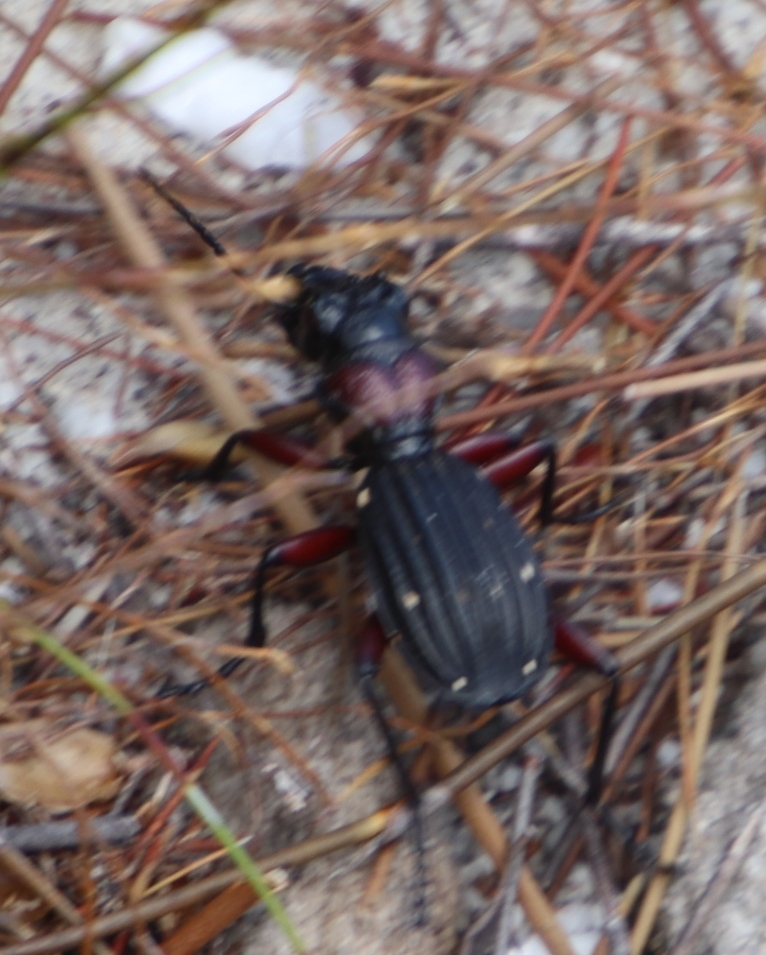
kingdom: Animalia
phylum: Arthropoda
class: Insecta
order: Coleoptera
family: Carabidae
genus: Anthia
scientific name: Anthia decemguttata
